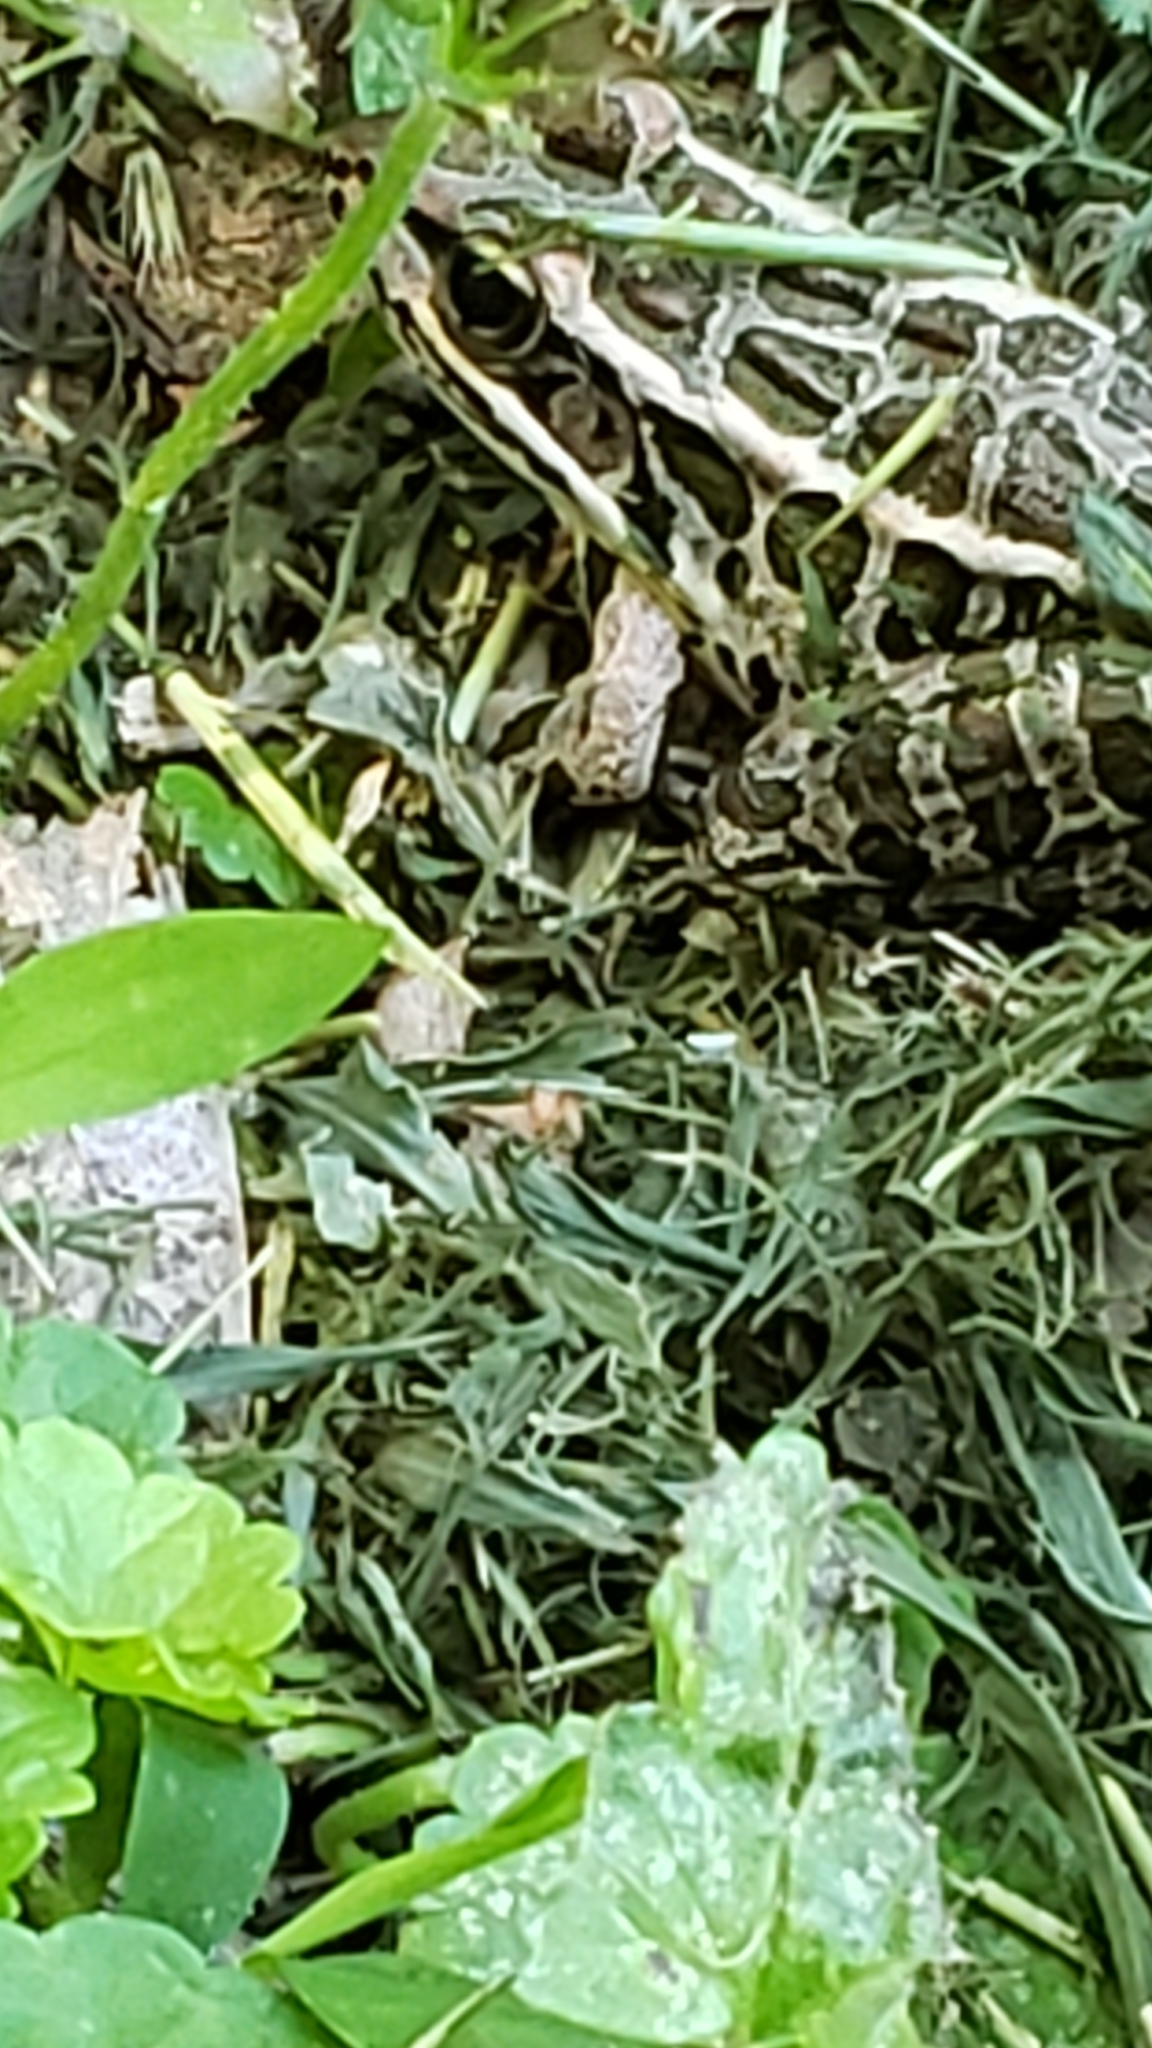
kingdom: Animalia
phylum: Chordata
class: Amphibia
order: Anura
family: Ranidae
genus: Lithobates
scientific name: Lithobates palustris
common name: Pickerel frog
